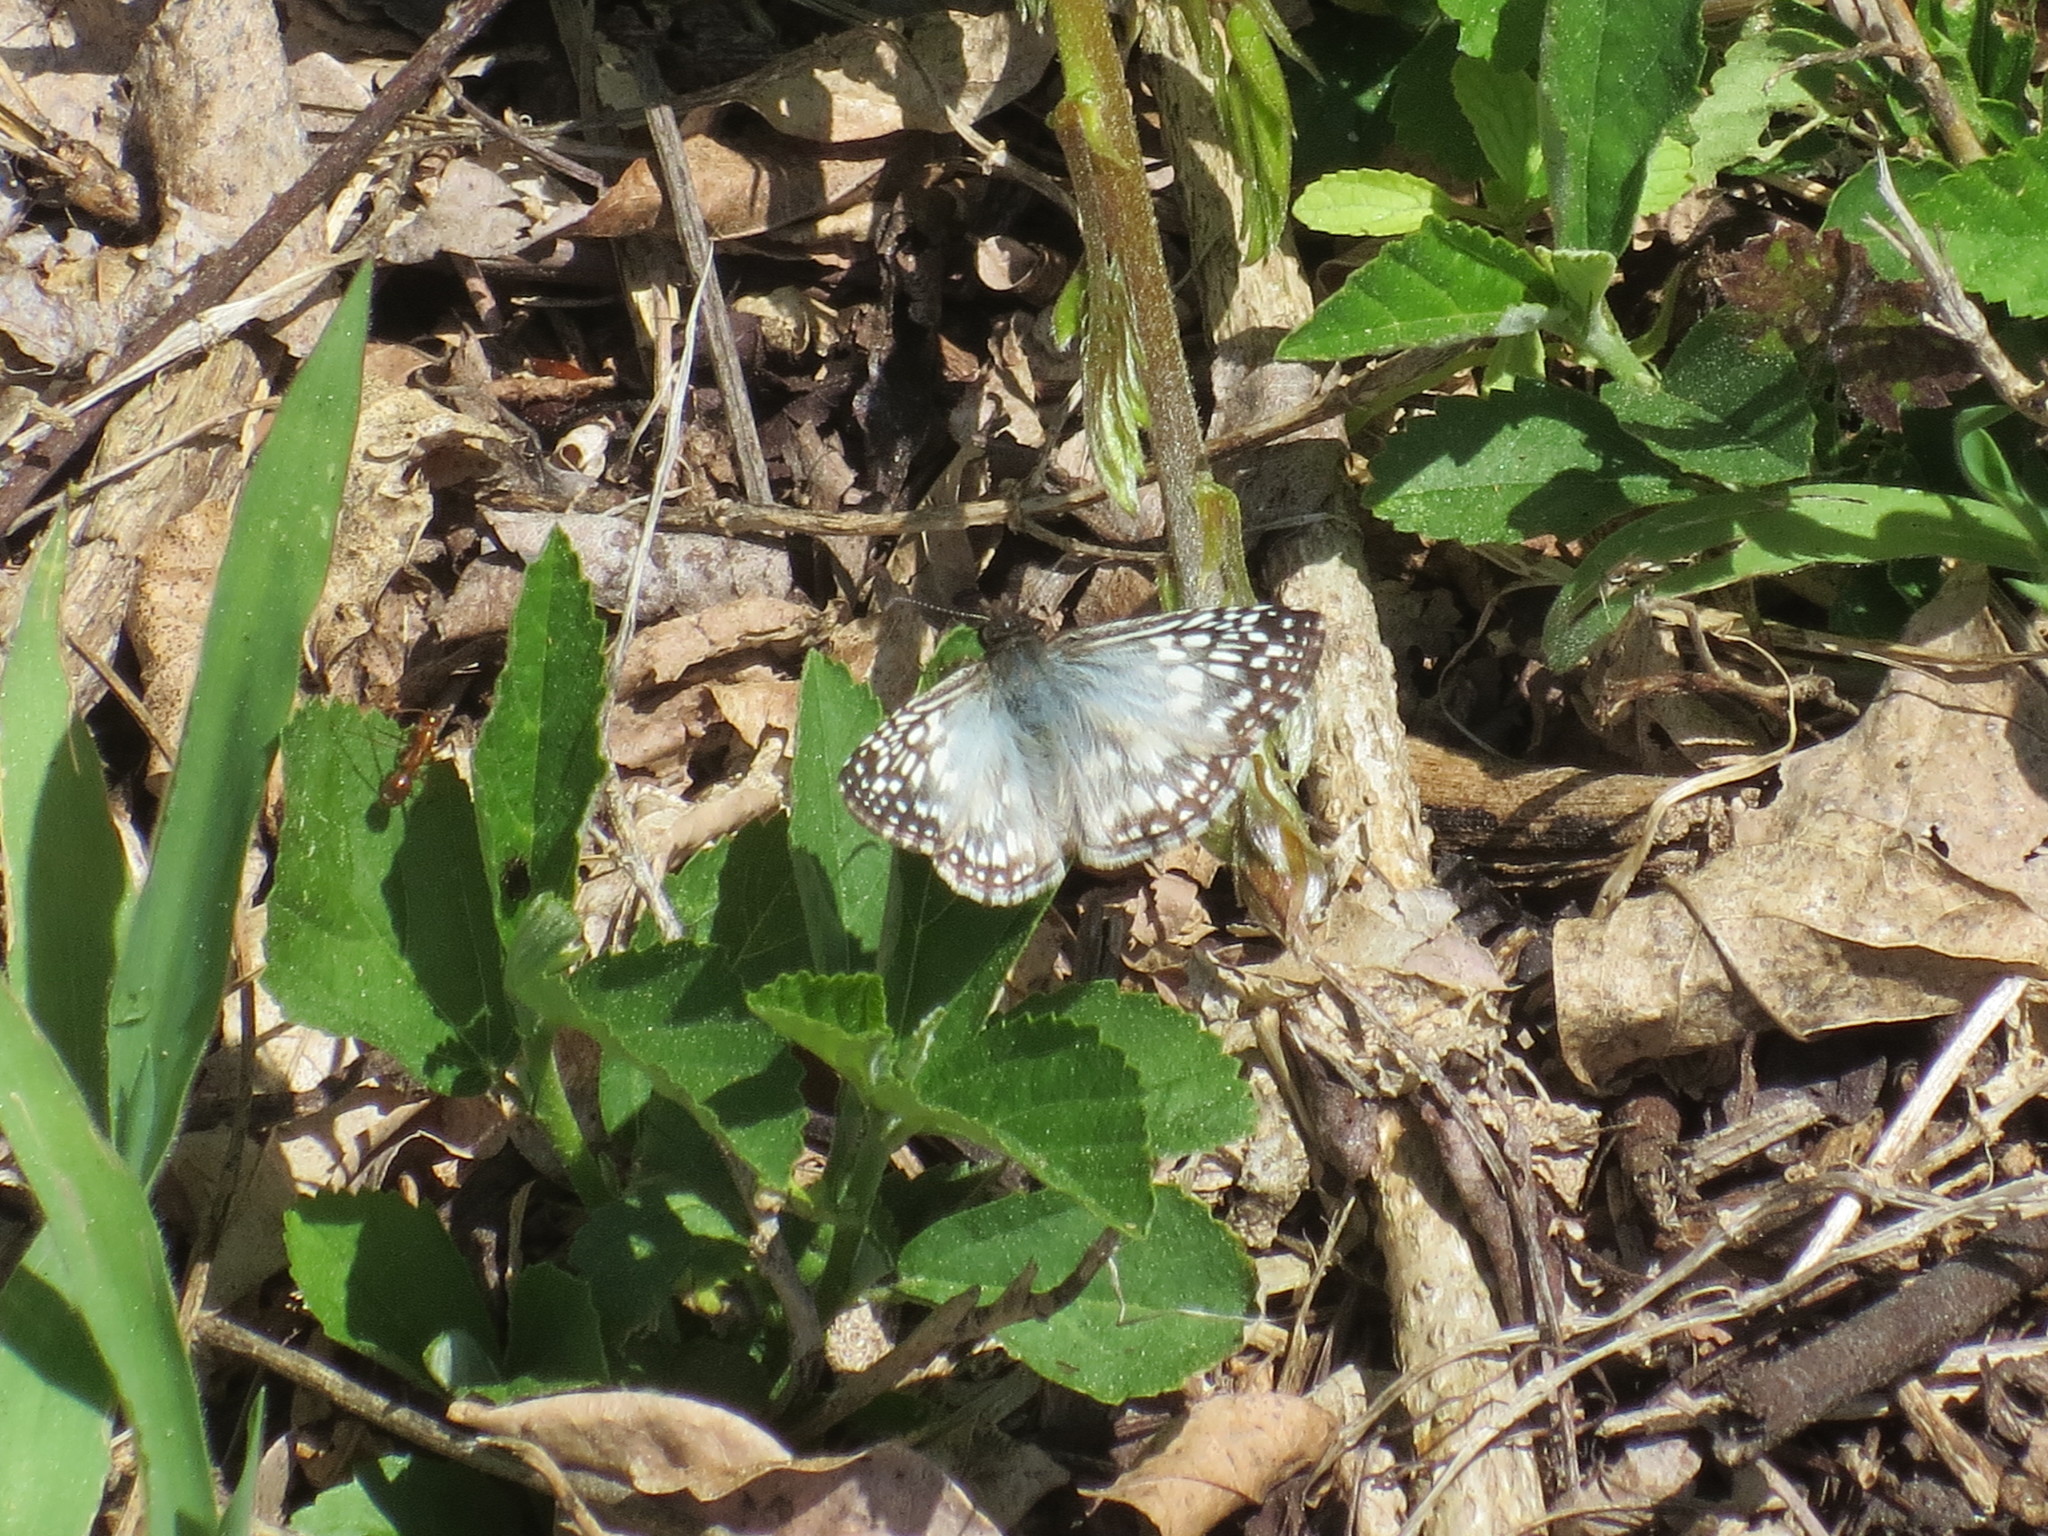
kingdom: Animalia
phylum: Arthropoda
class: Insecta
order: Lepidoptera
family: Hesperiidae
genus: Pyrgus
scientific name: Pyrgus oileus
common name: Tropical checkered-skipper
